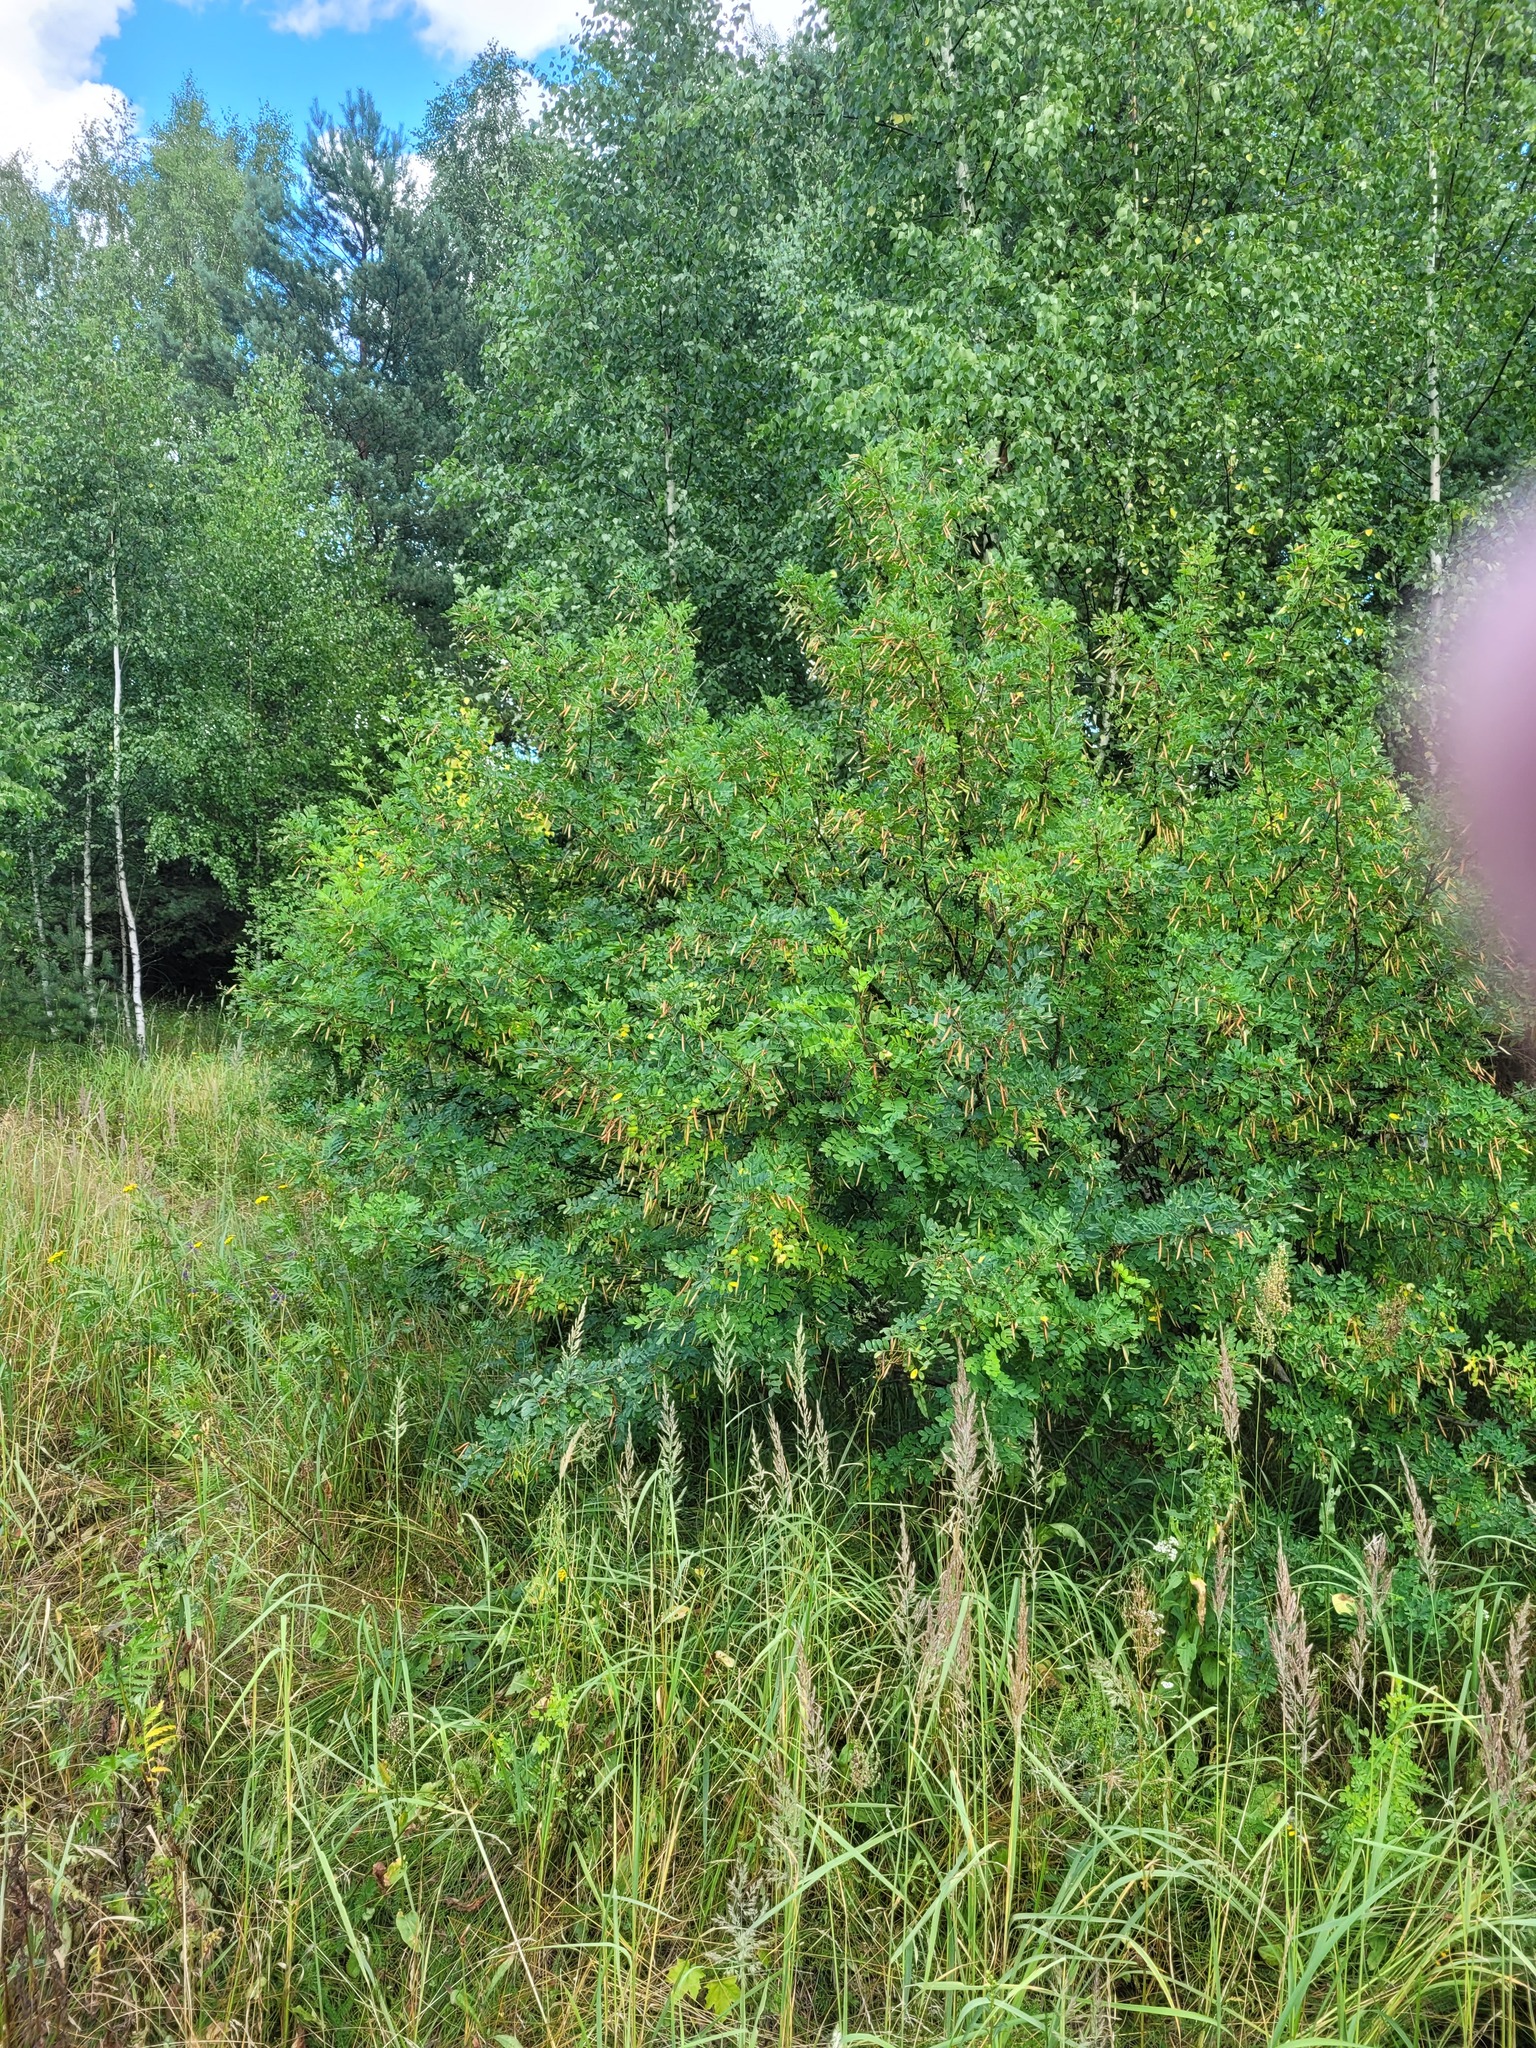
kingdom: Plantae
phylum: Tracheophyta
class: Magnoliopsida
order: Fabales
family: Fabaceae
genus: Caragana
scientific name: Caragana arborescens
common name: Siberian peashrub
